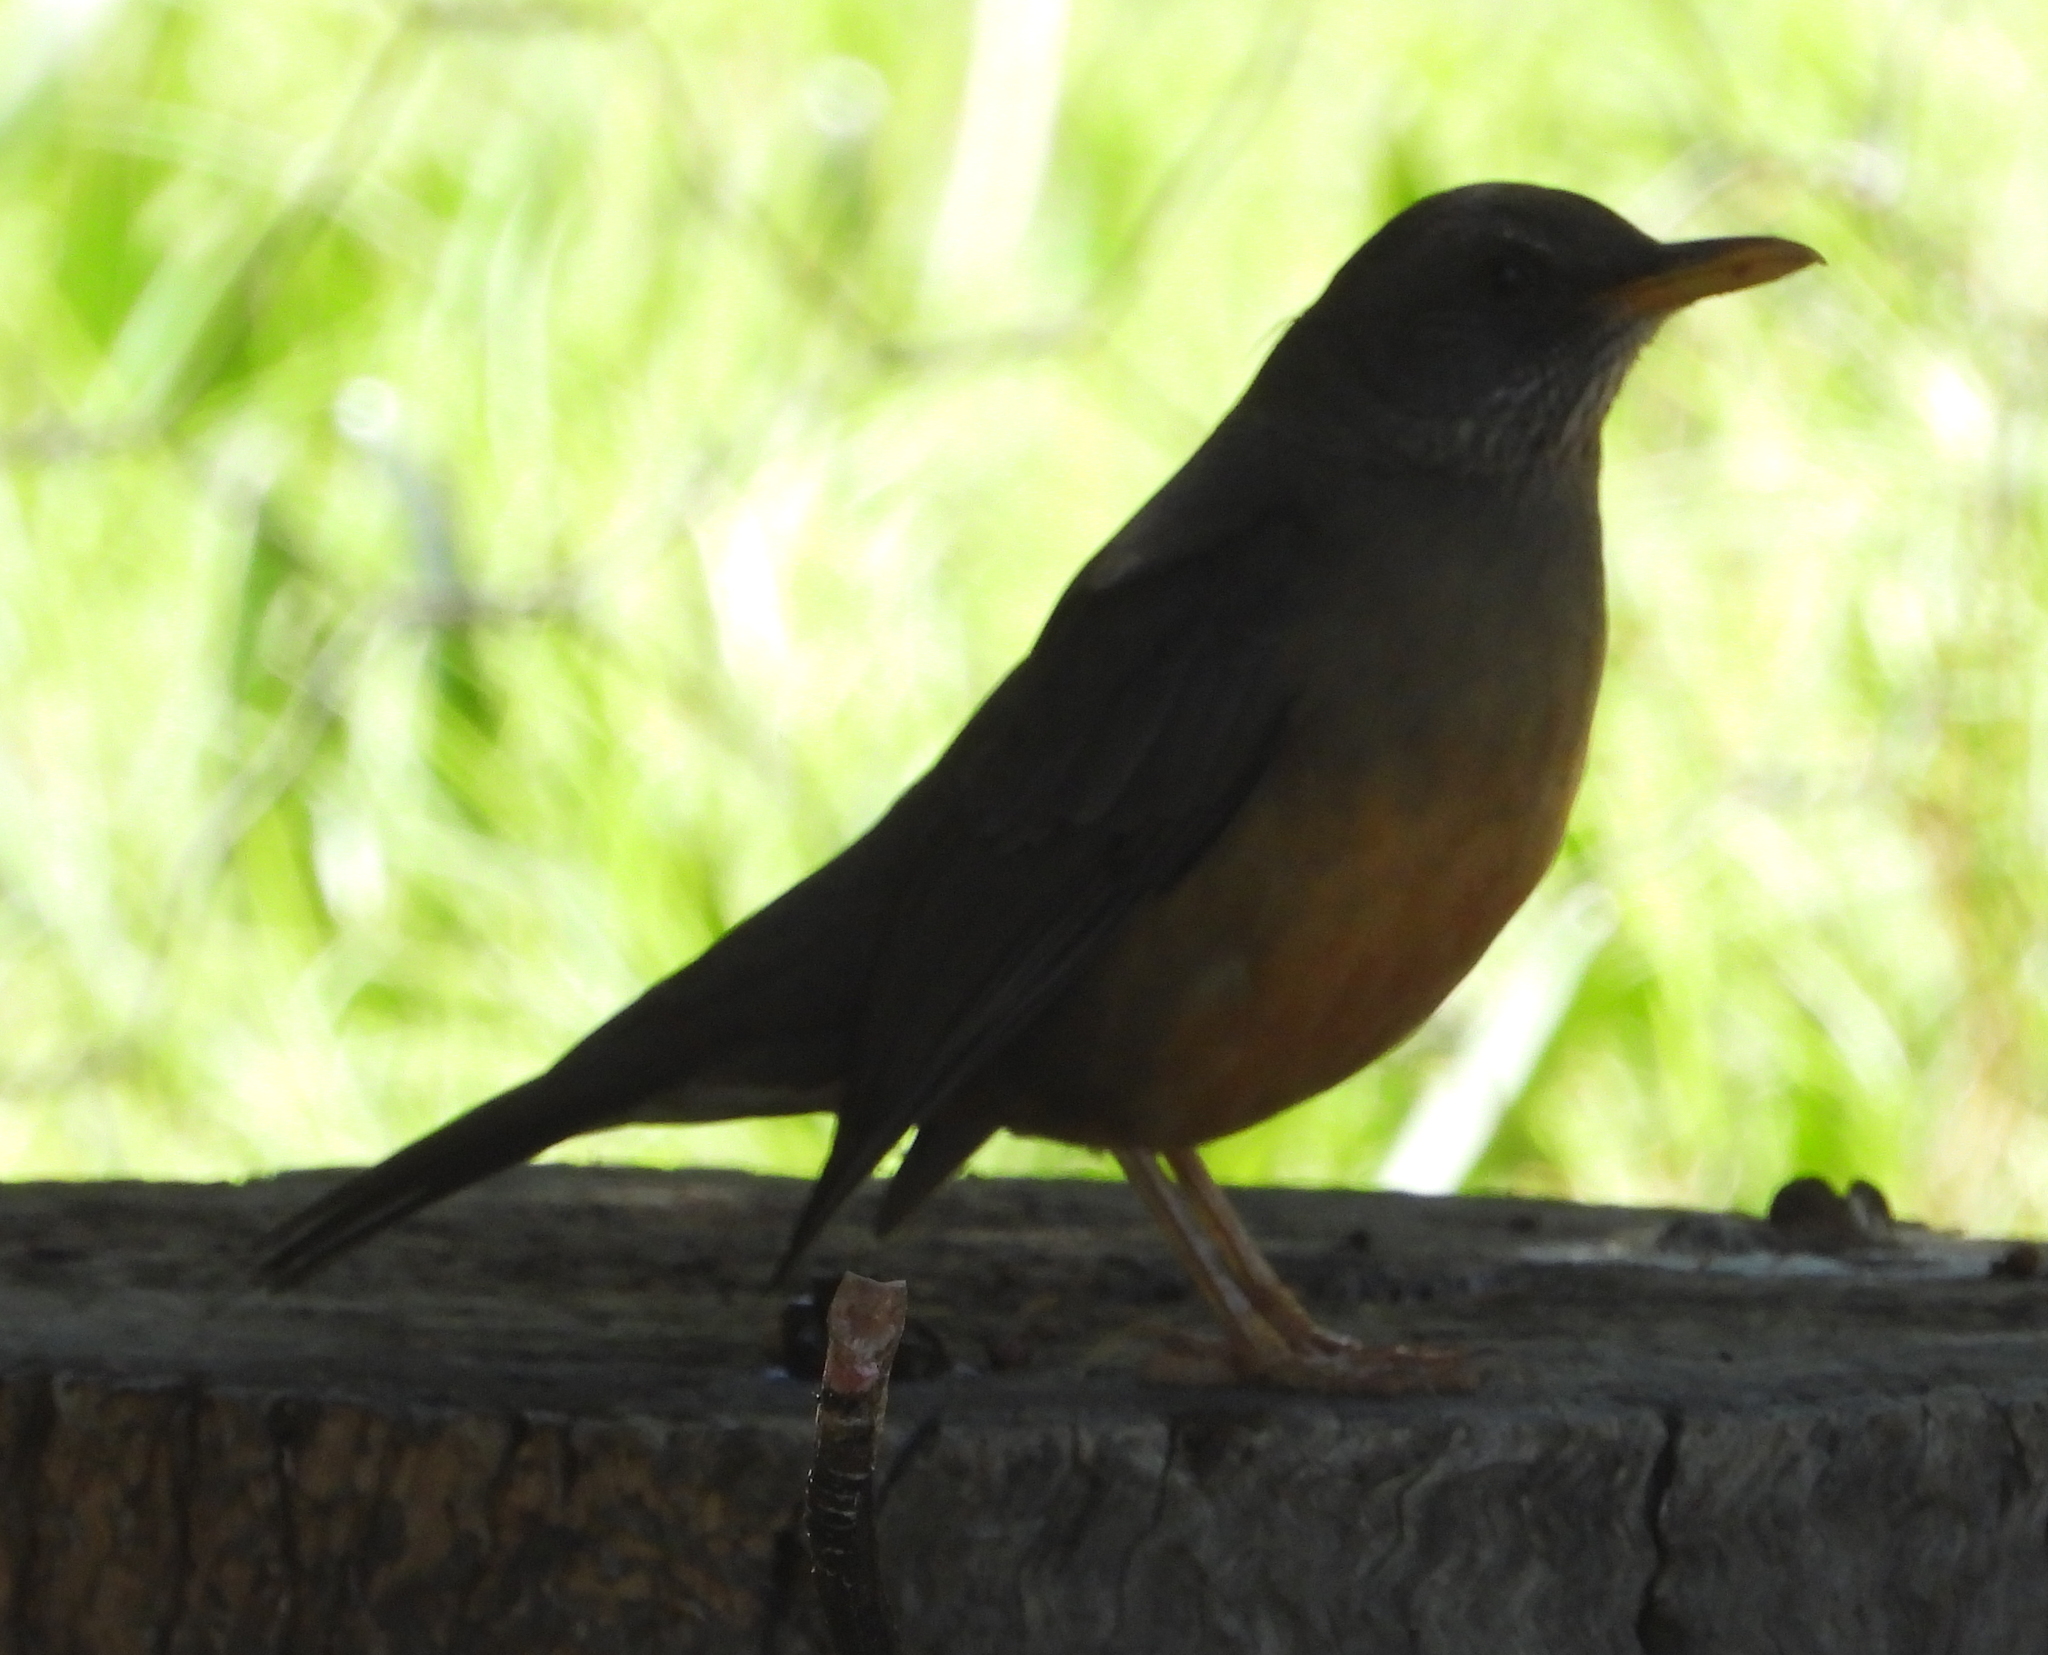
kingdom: Animalia
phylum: Chordata
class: Aves
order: Passeriformes
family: Turdidae
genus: Turdus
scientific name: Turdus olivaceus
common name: Olive thrush
